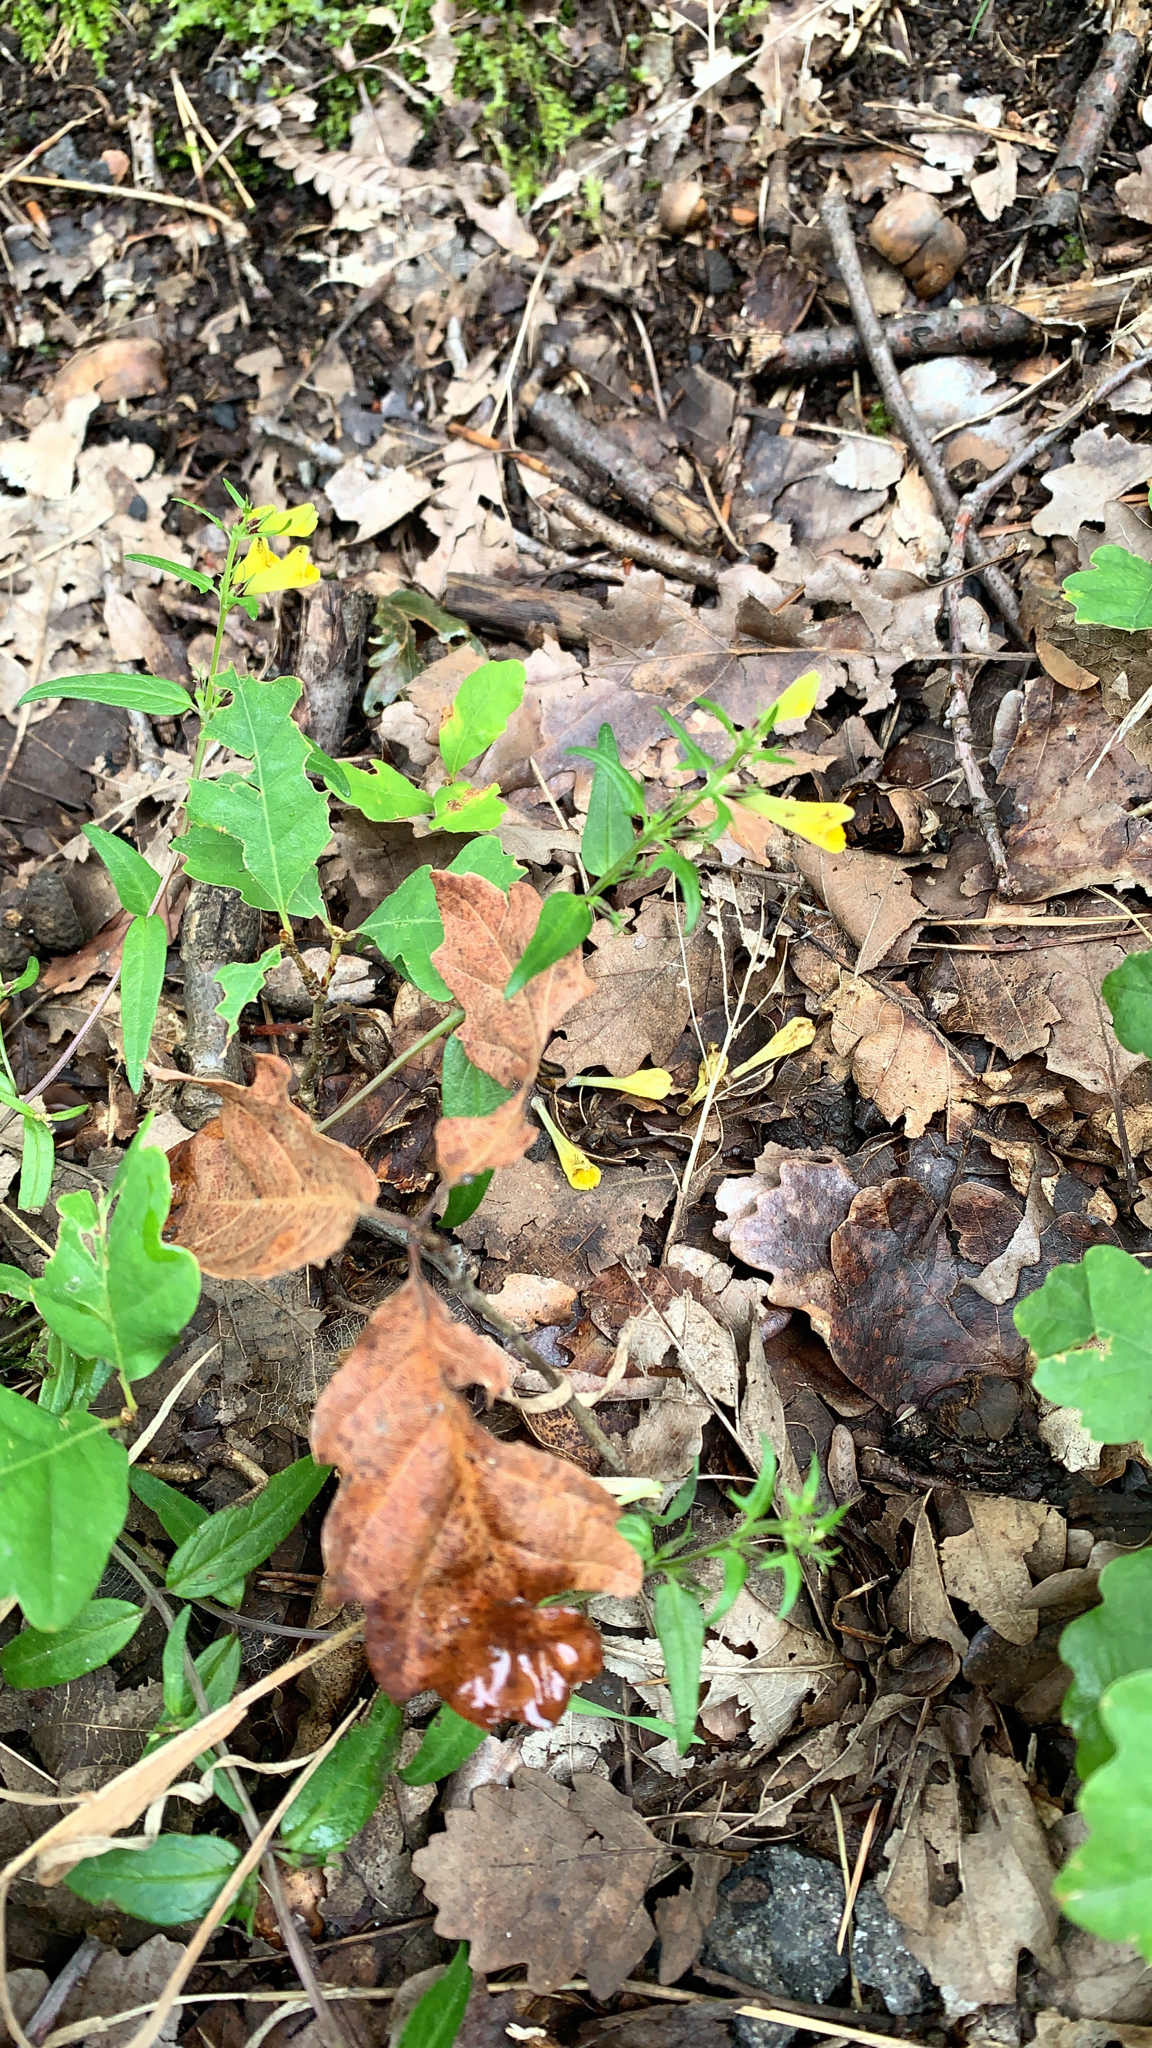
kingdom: Plantae
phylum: Tracheophyta
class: Magnoliopsida
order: Lamiales
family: Orobanchaceae
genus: Melampyrum
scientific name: Melampyrum pratense
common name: Common cow-wheat
